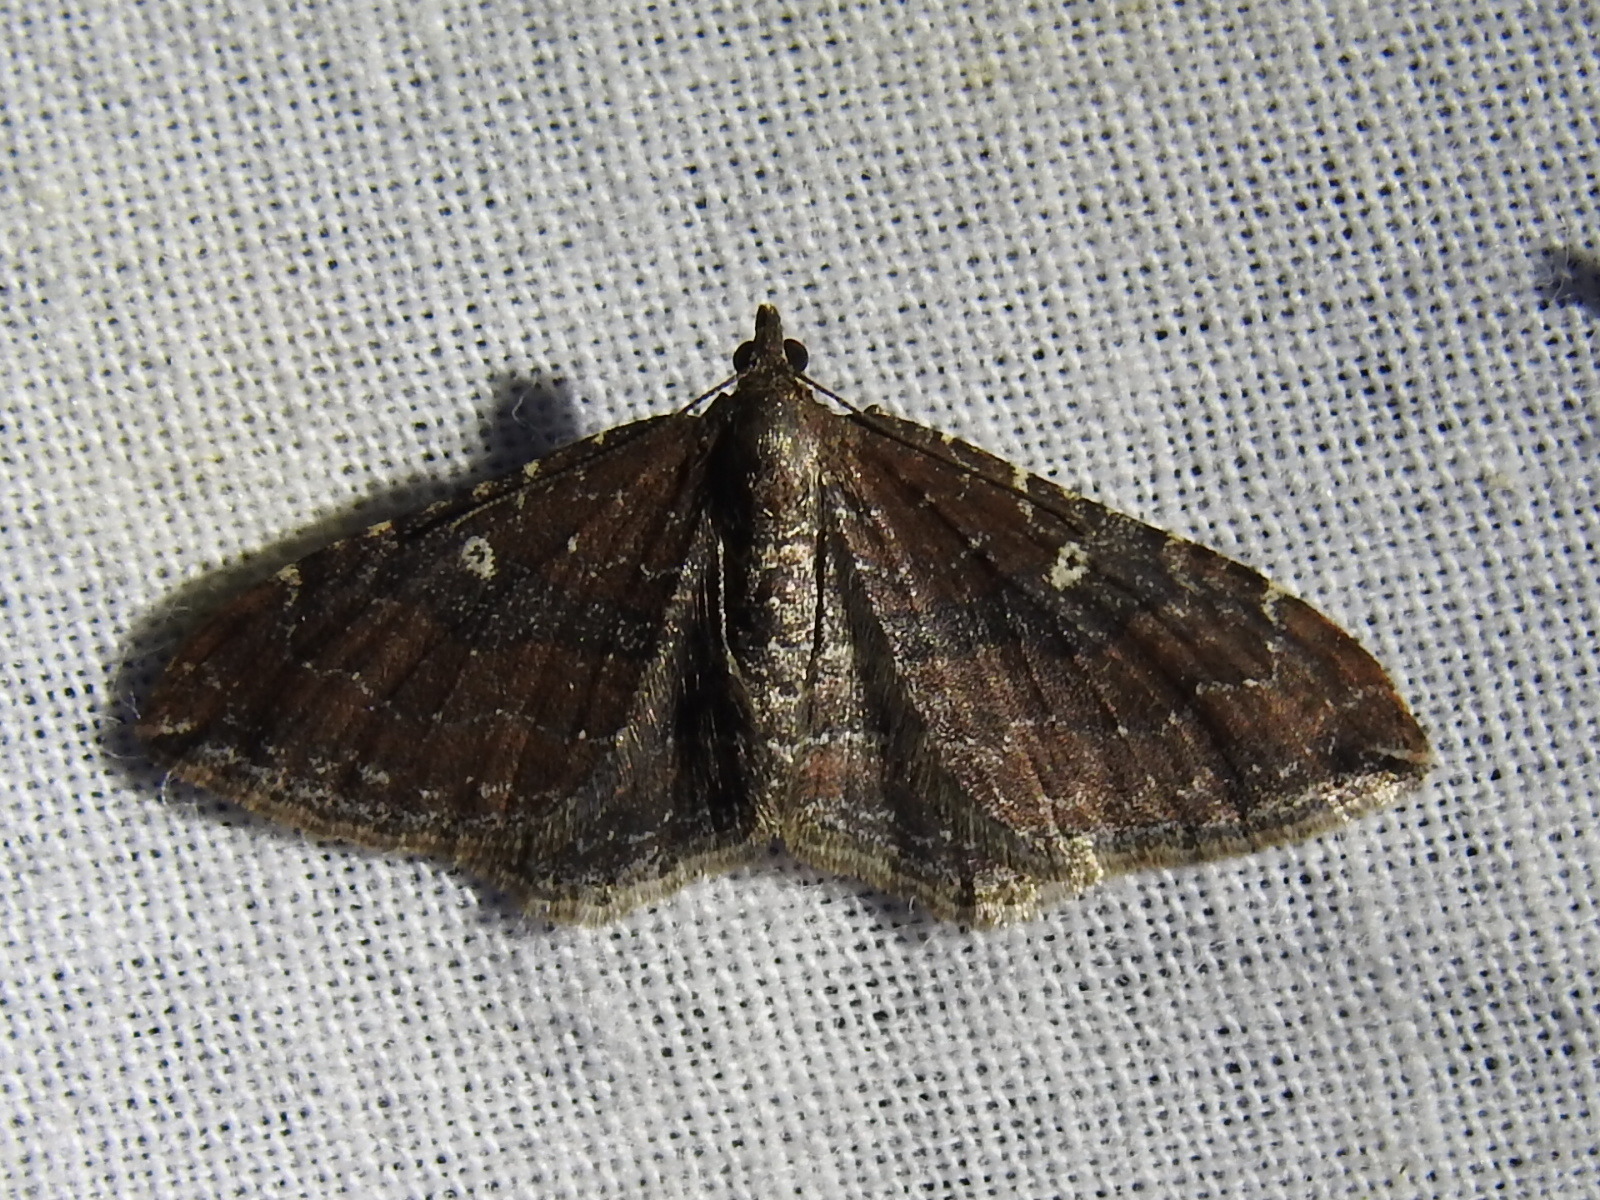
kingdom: Animalia
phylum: Arthropoda
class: Insecta
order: Lepidoptera
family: Geometridae
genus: Orthonama
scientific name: Orthonama obstipata
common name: The gem
